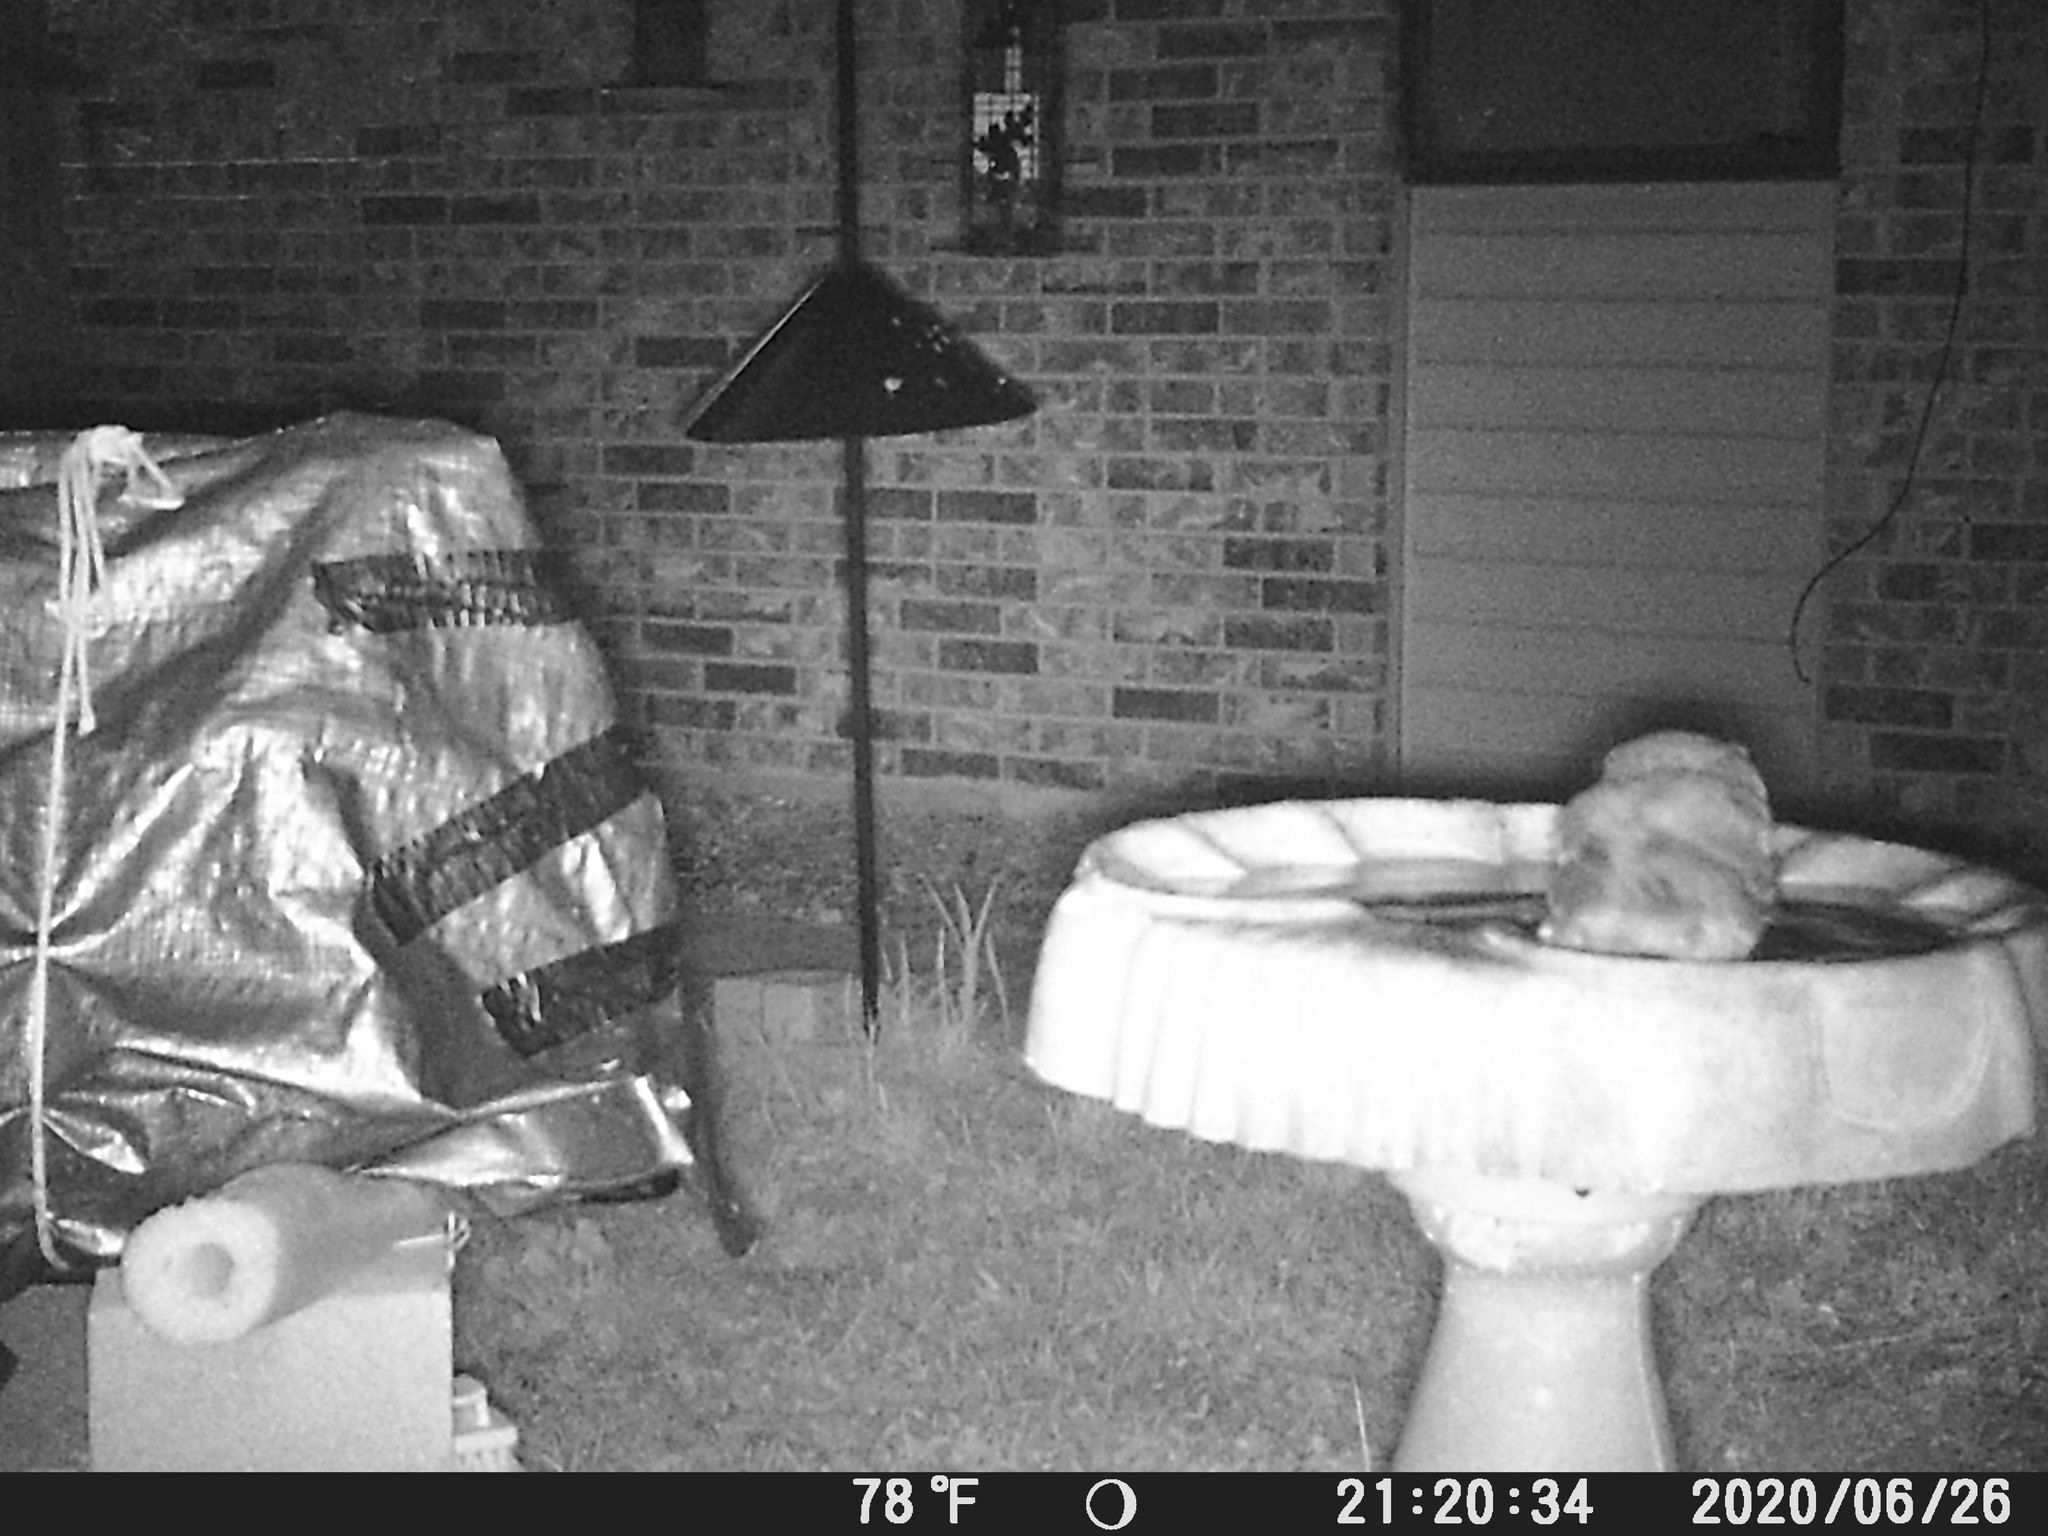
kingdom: Animalia
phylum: Chordata
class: Aves
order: Strigiformes
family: Strigidae
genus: Megascops
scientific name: Megascops asio
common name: Eastern screech-owl
